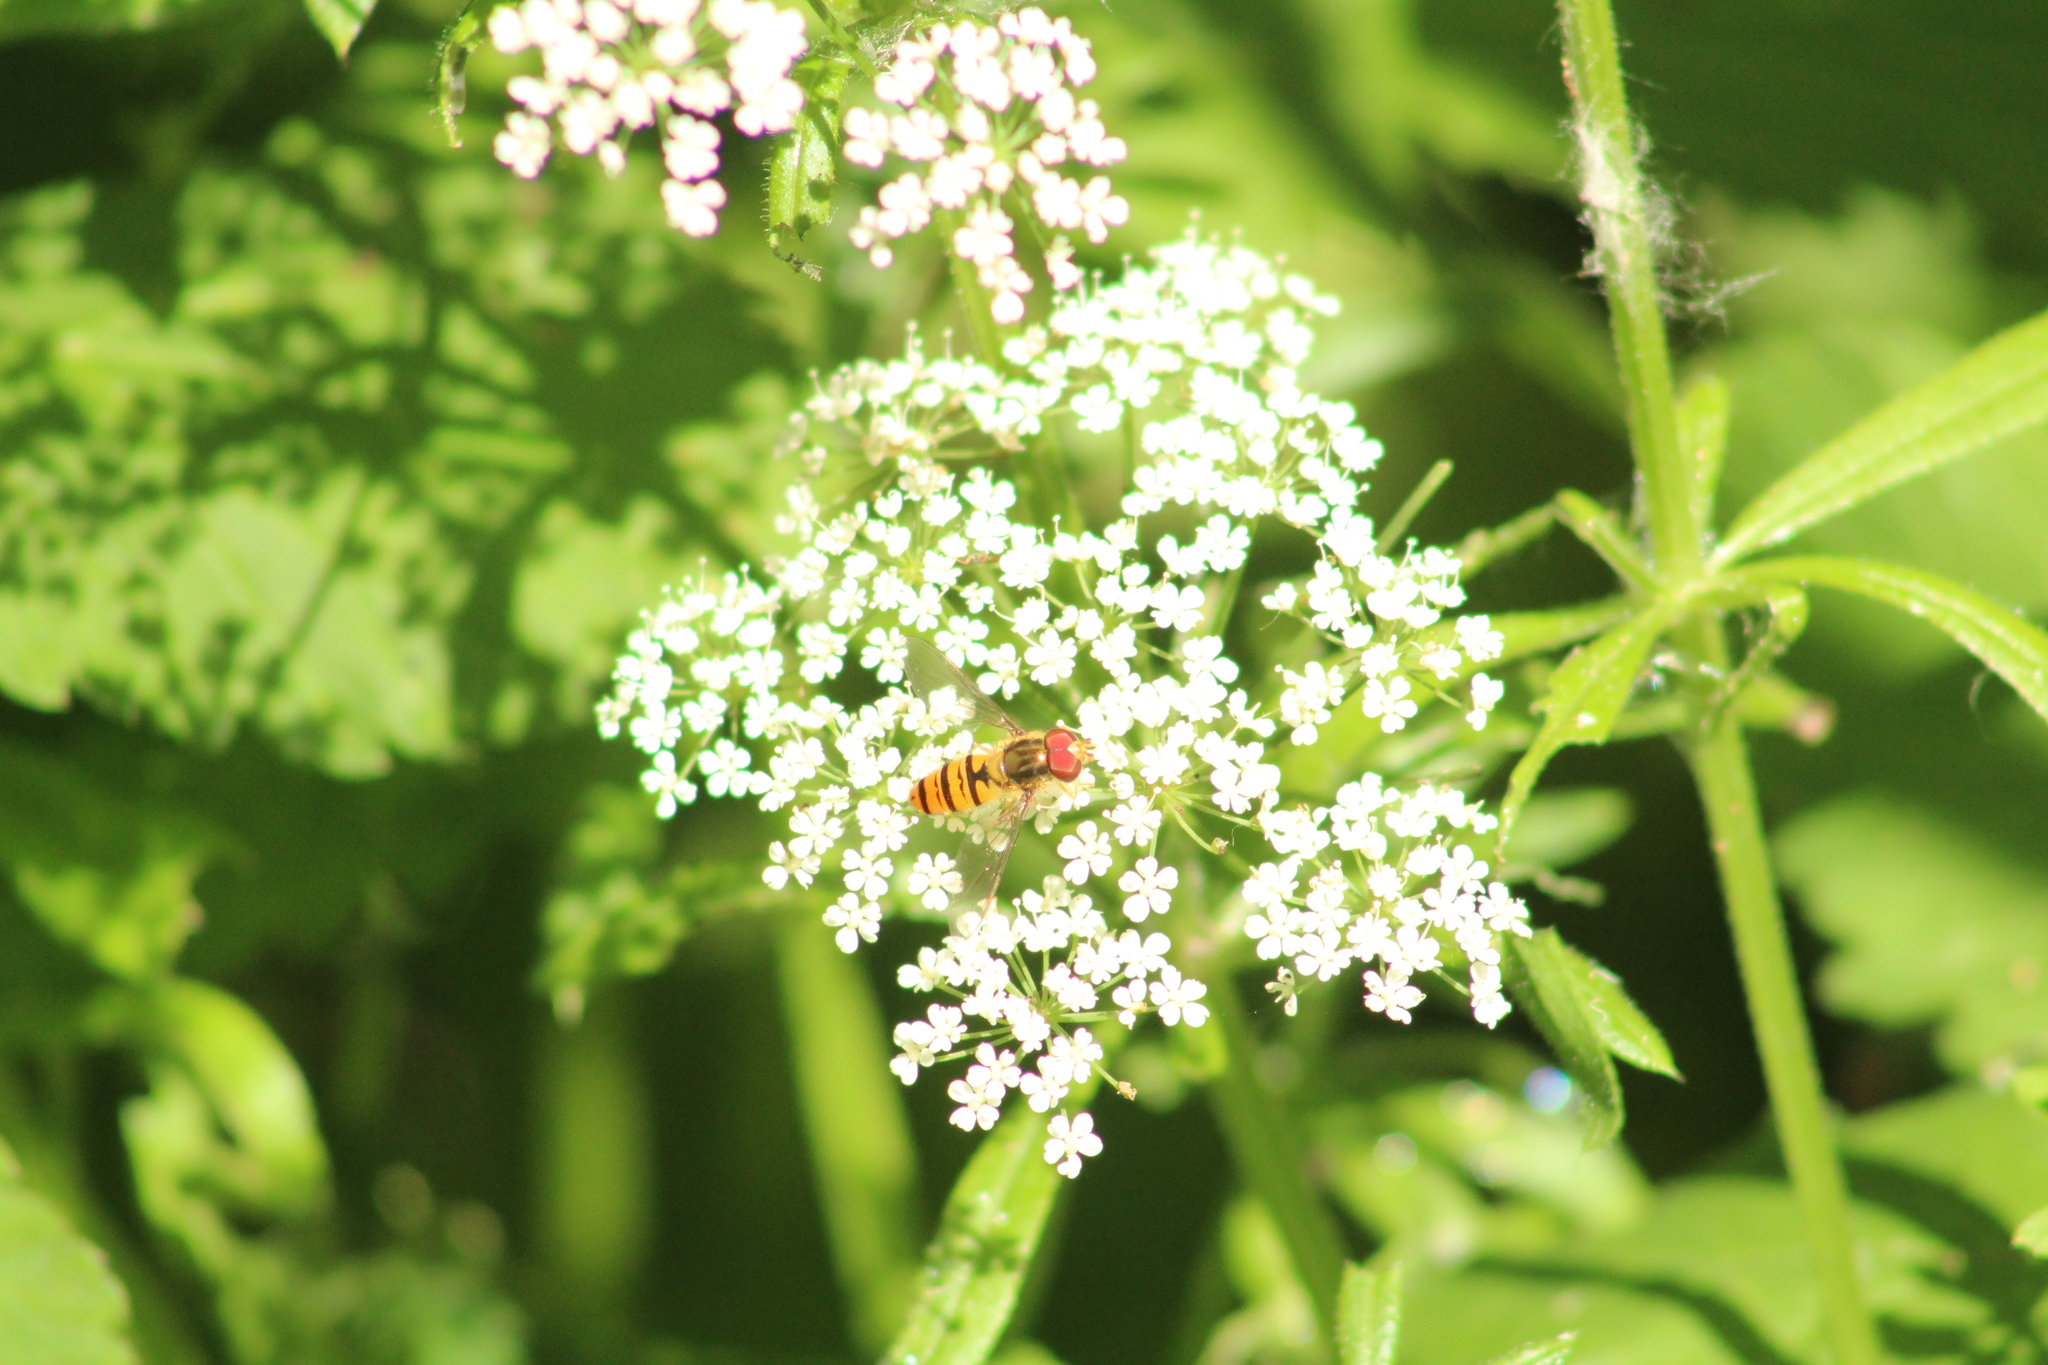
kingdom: Animalia
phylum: Arthropoda
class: Insecta
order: Diptera
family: Syrphidae
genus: Episyrphus
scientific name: Episyrphus balteatus
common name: Marmalade hoverfly
